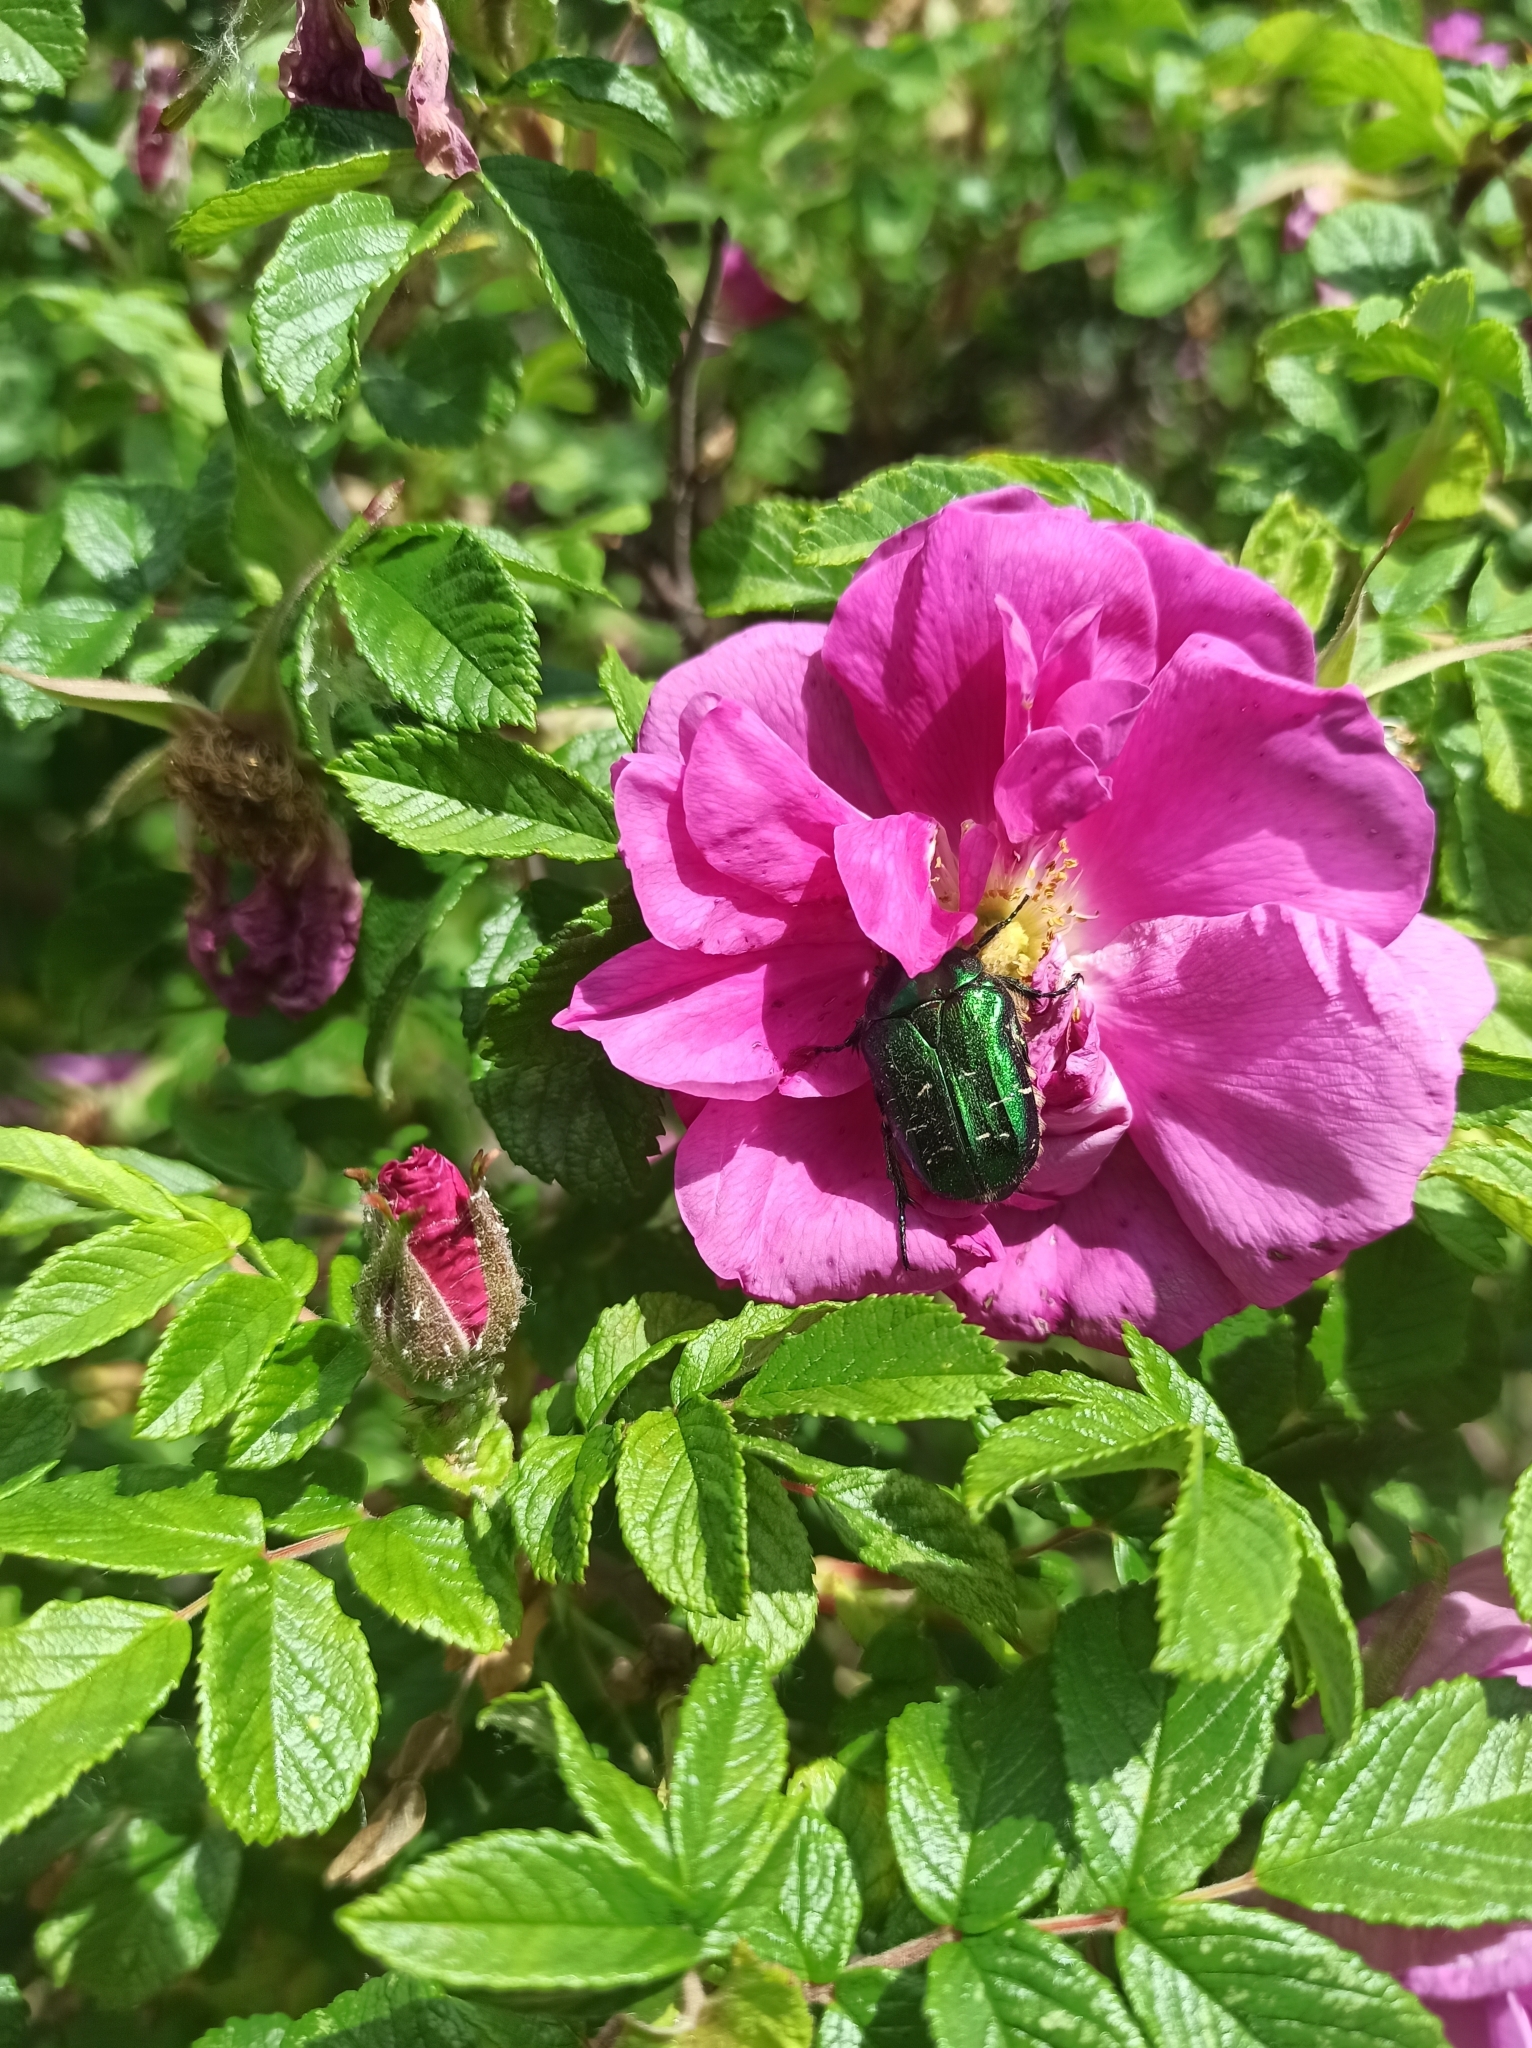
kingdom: Animalia
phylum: Arthropoda
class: Insecta
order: Coleoptera
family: Scarabaeidae
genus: Cetonia
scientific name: Cetonia aurata
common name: Rose chafer
